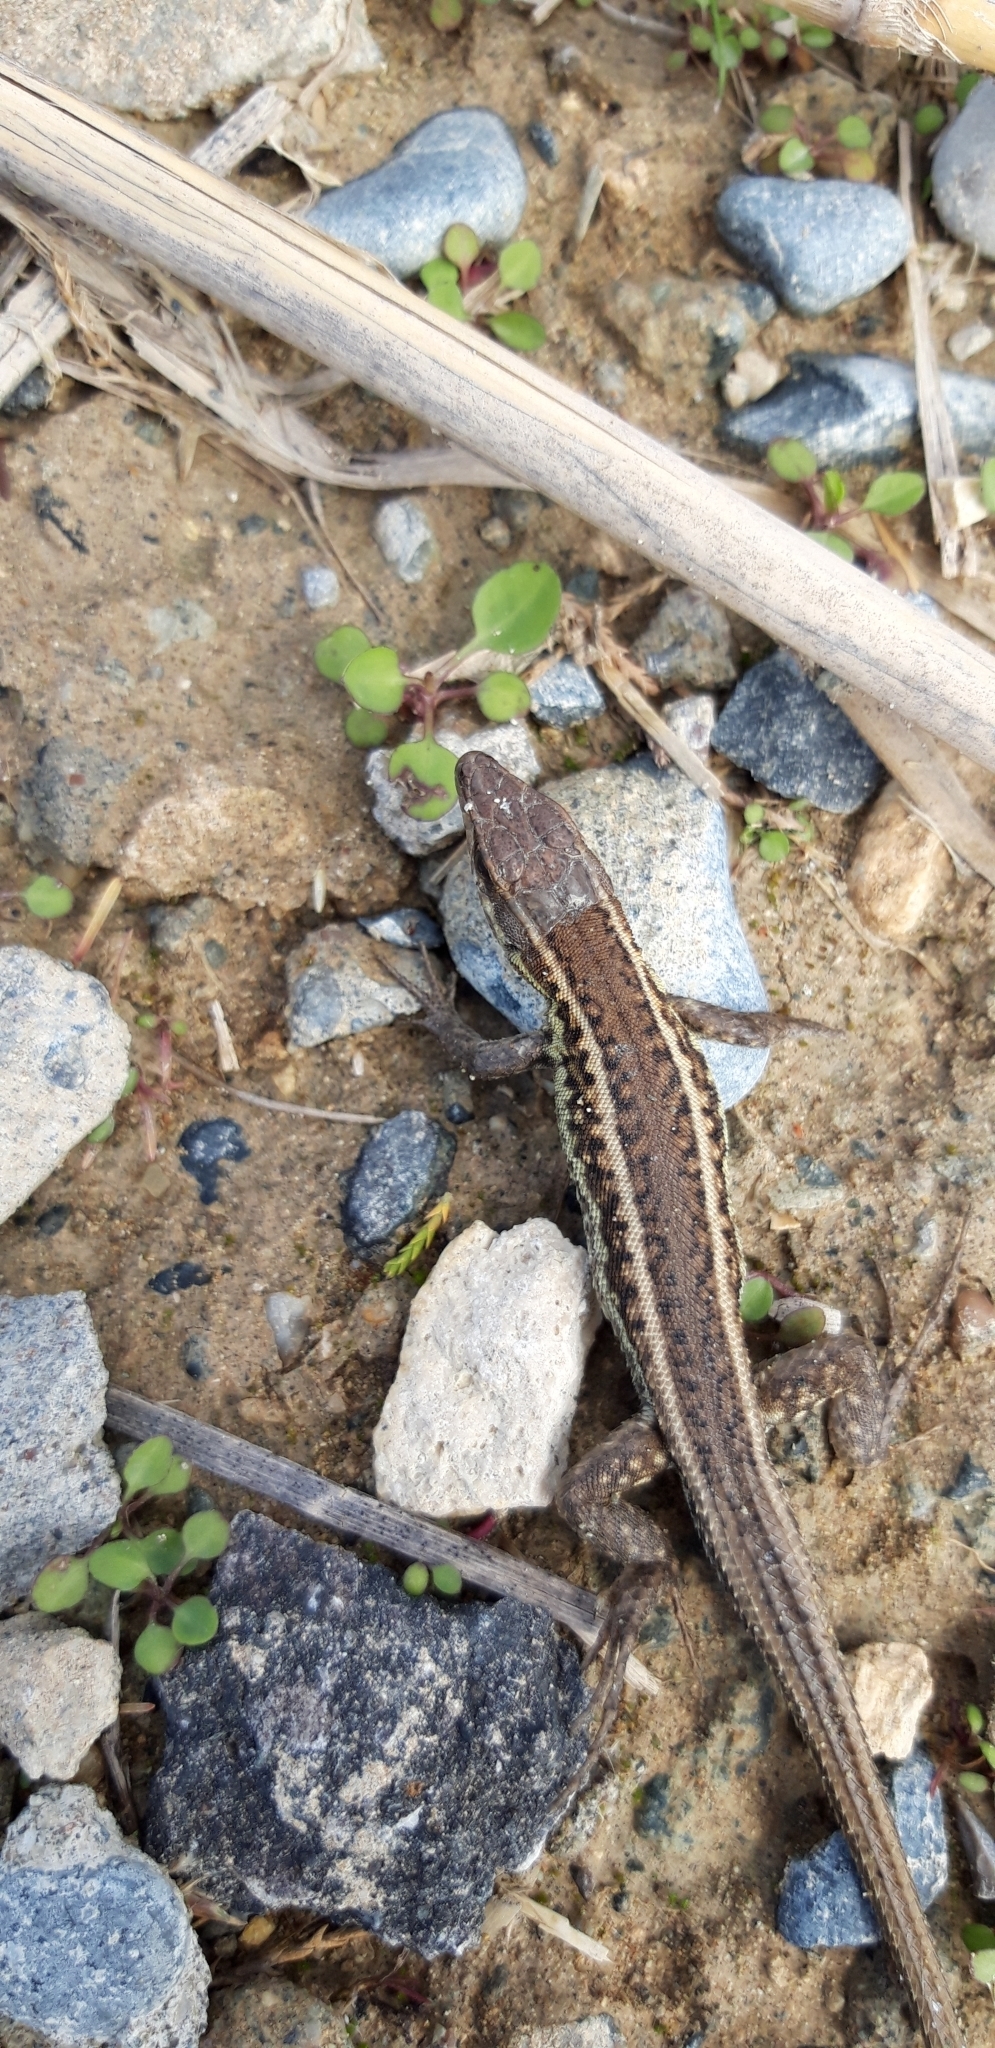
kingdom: Animalia
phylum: Chordata
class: Squamata
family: Lacertidae
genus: Ophisops
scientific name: Ophisops elegans
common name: Snake-eyed lizard
